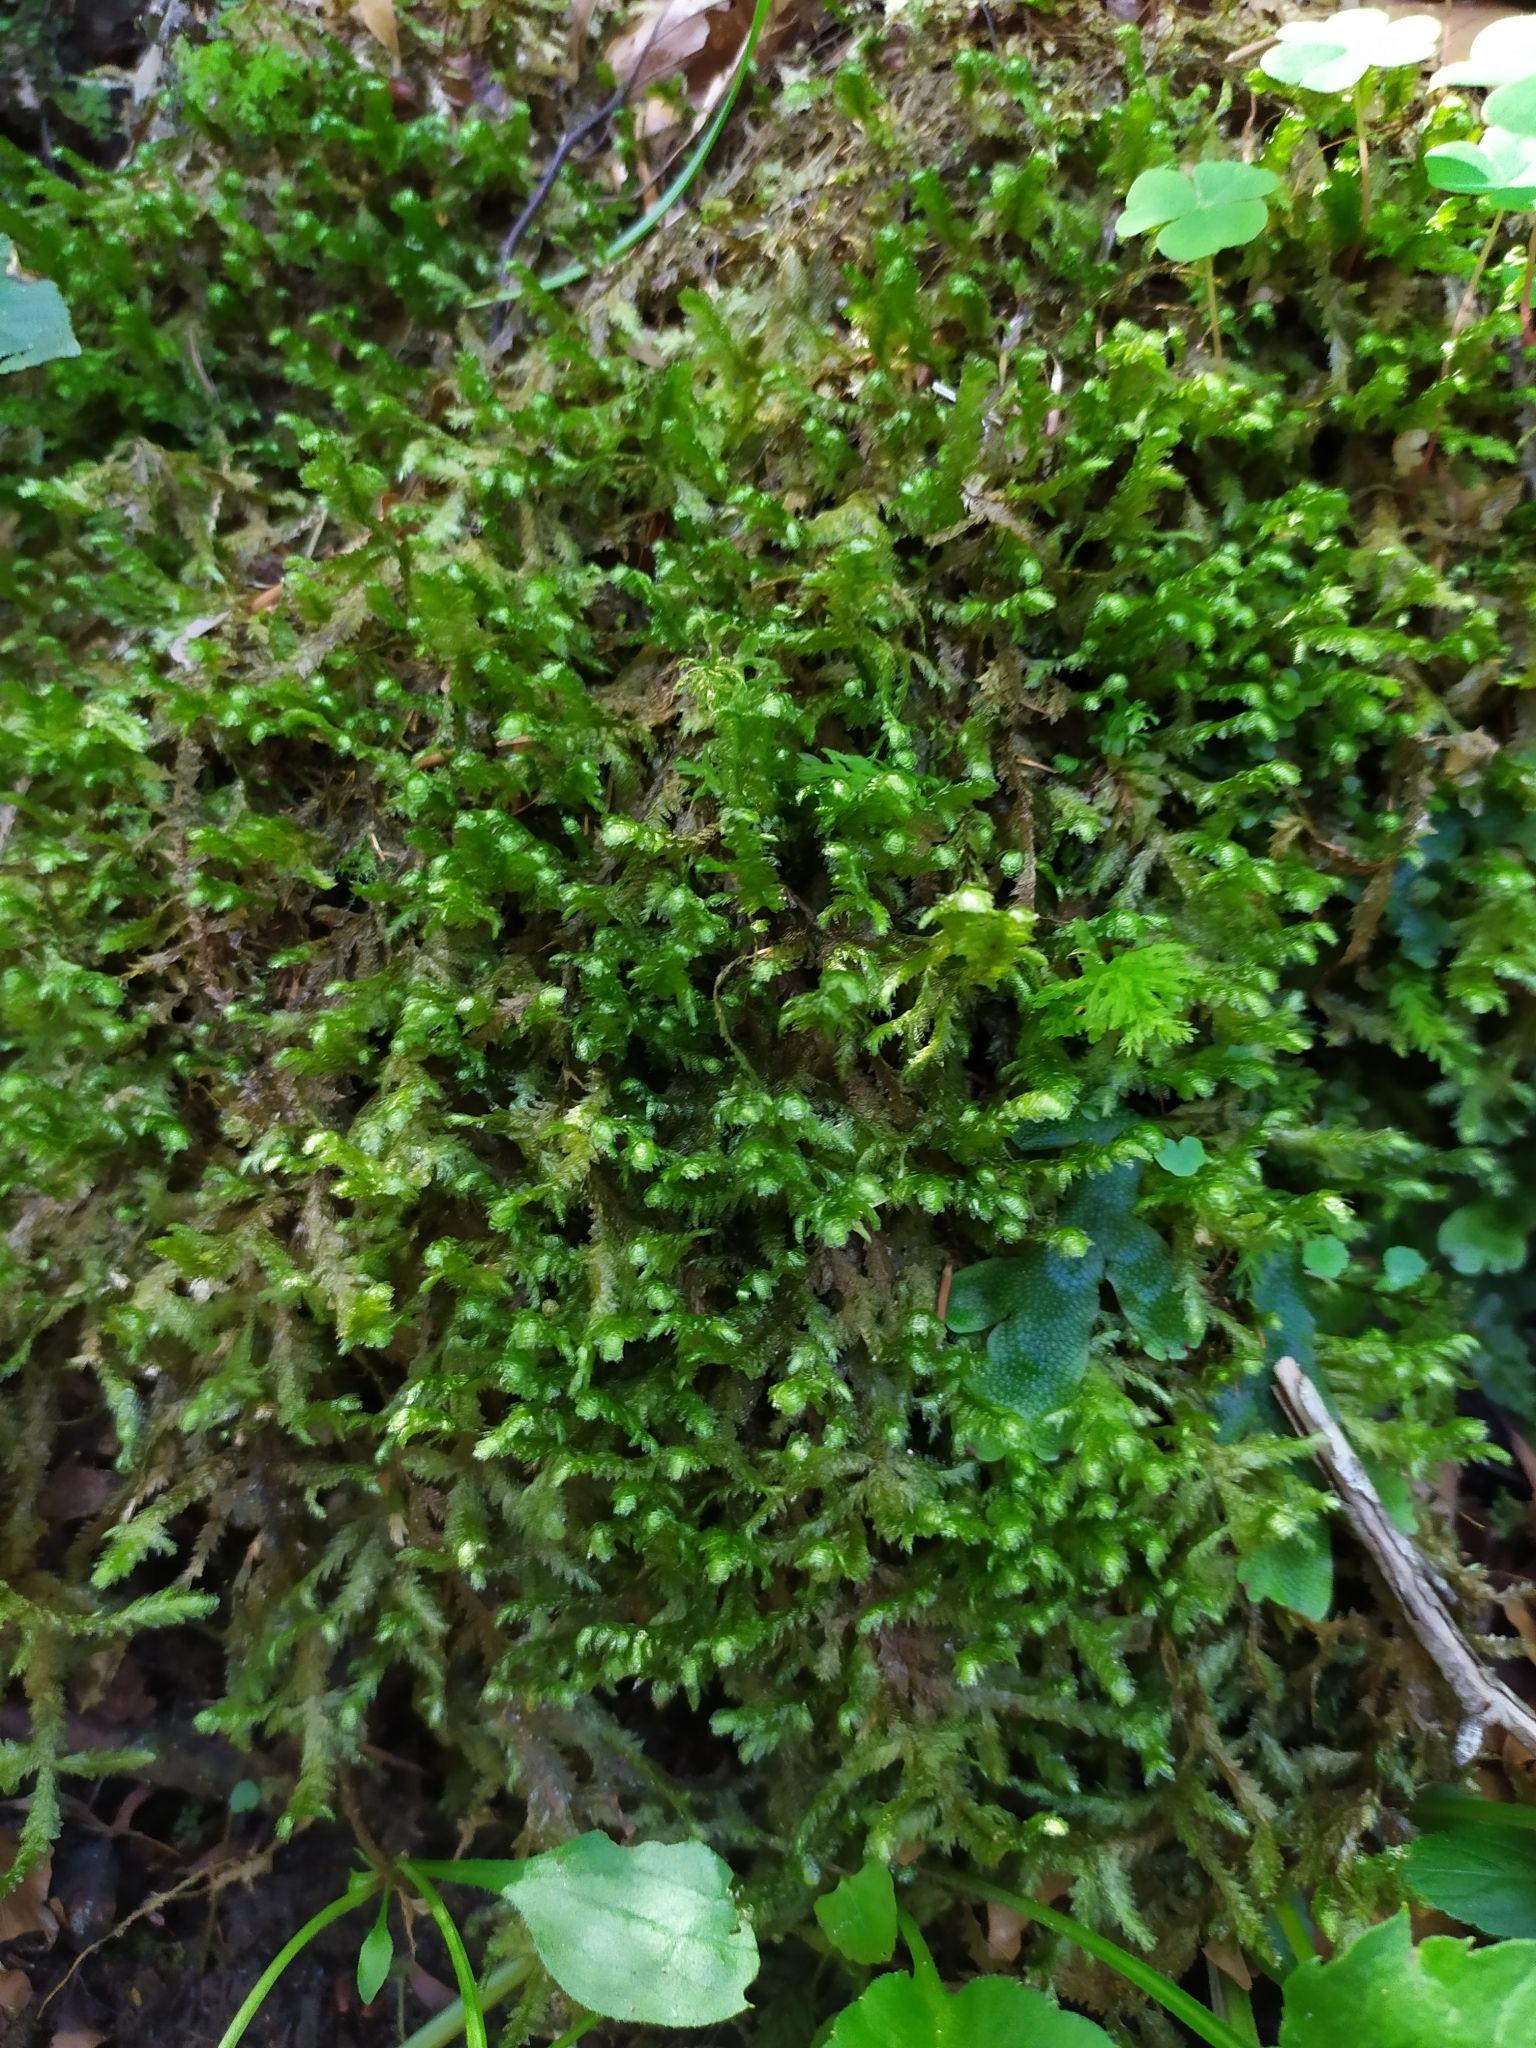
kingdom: Plantae
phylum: Bryophyta
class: Bryopsida
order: Hypnales
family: Neckeraceae
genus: Exsertotheca
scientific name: Exsertotheca crispa
